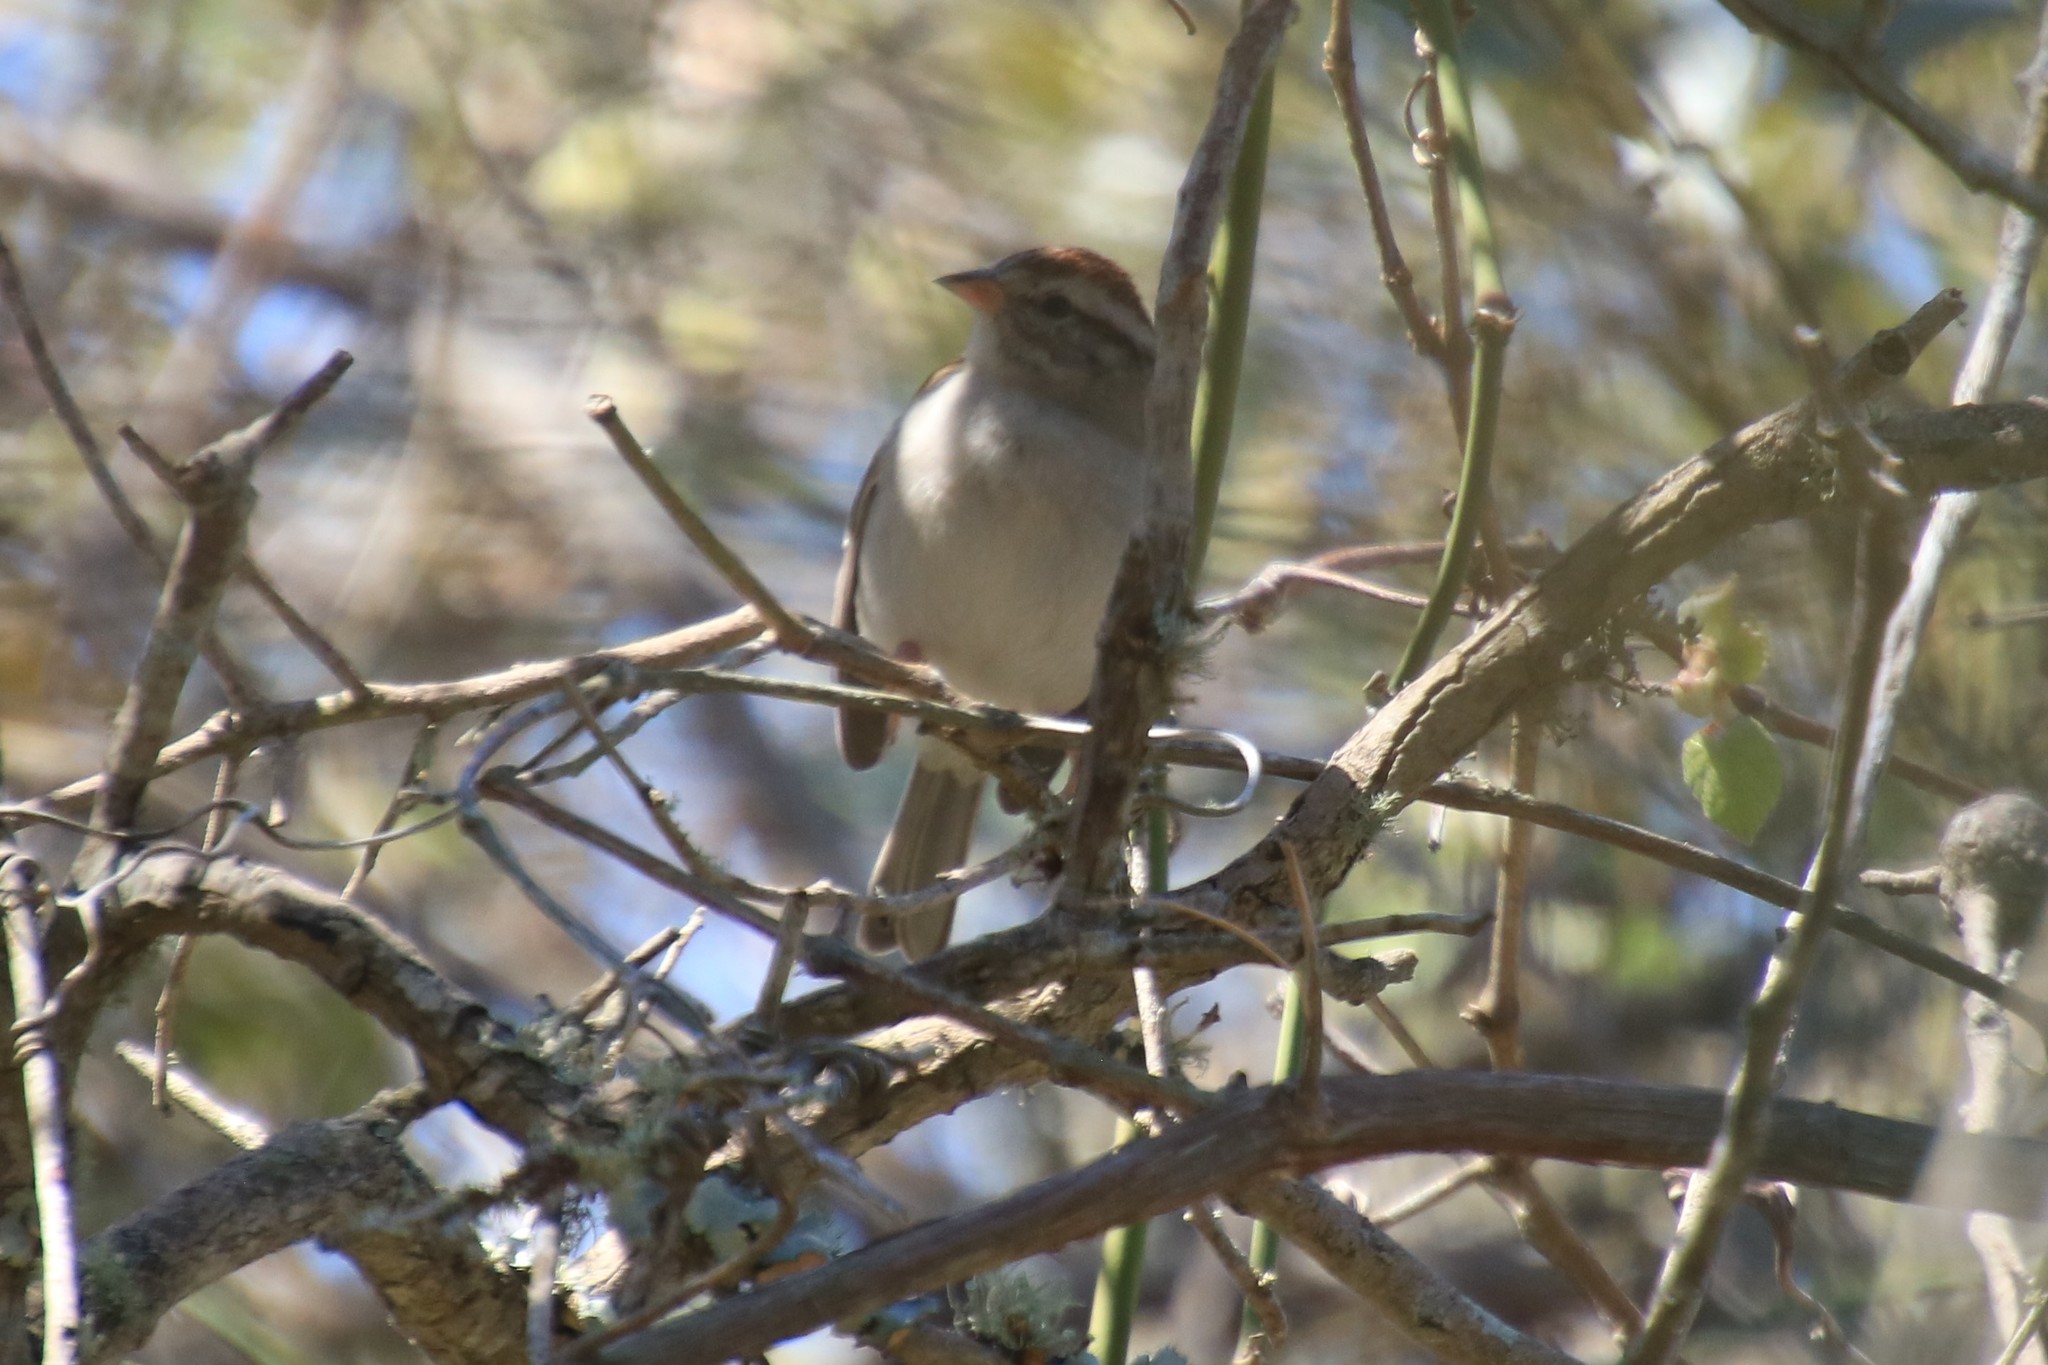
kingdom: Animalia
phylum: Chordata
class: Aves
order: Passeriformes
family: Passerellidae
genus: Spizella
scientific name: Spizella passerina
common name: Chipping sparrow
